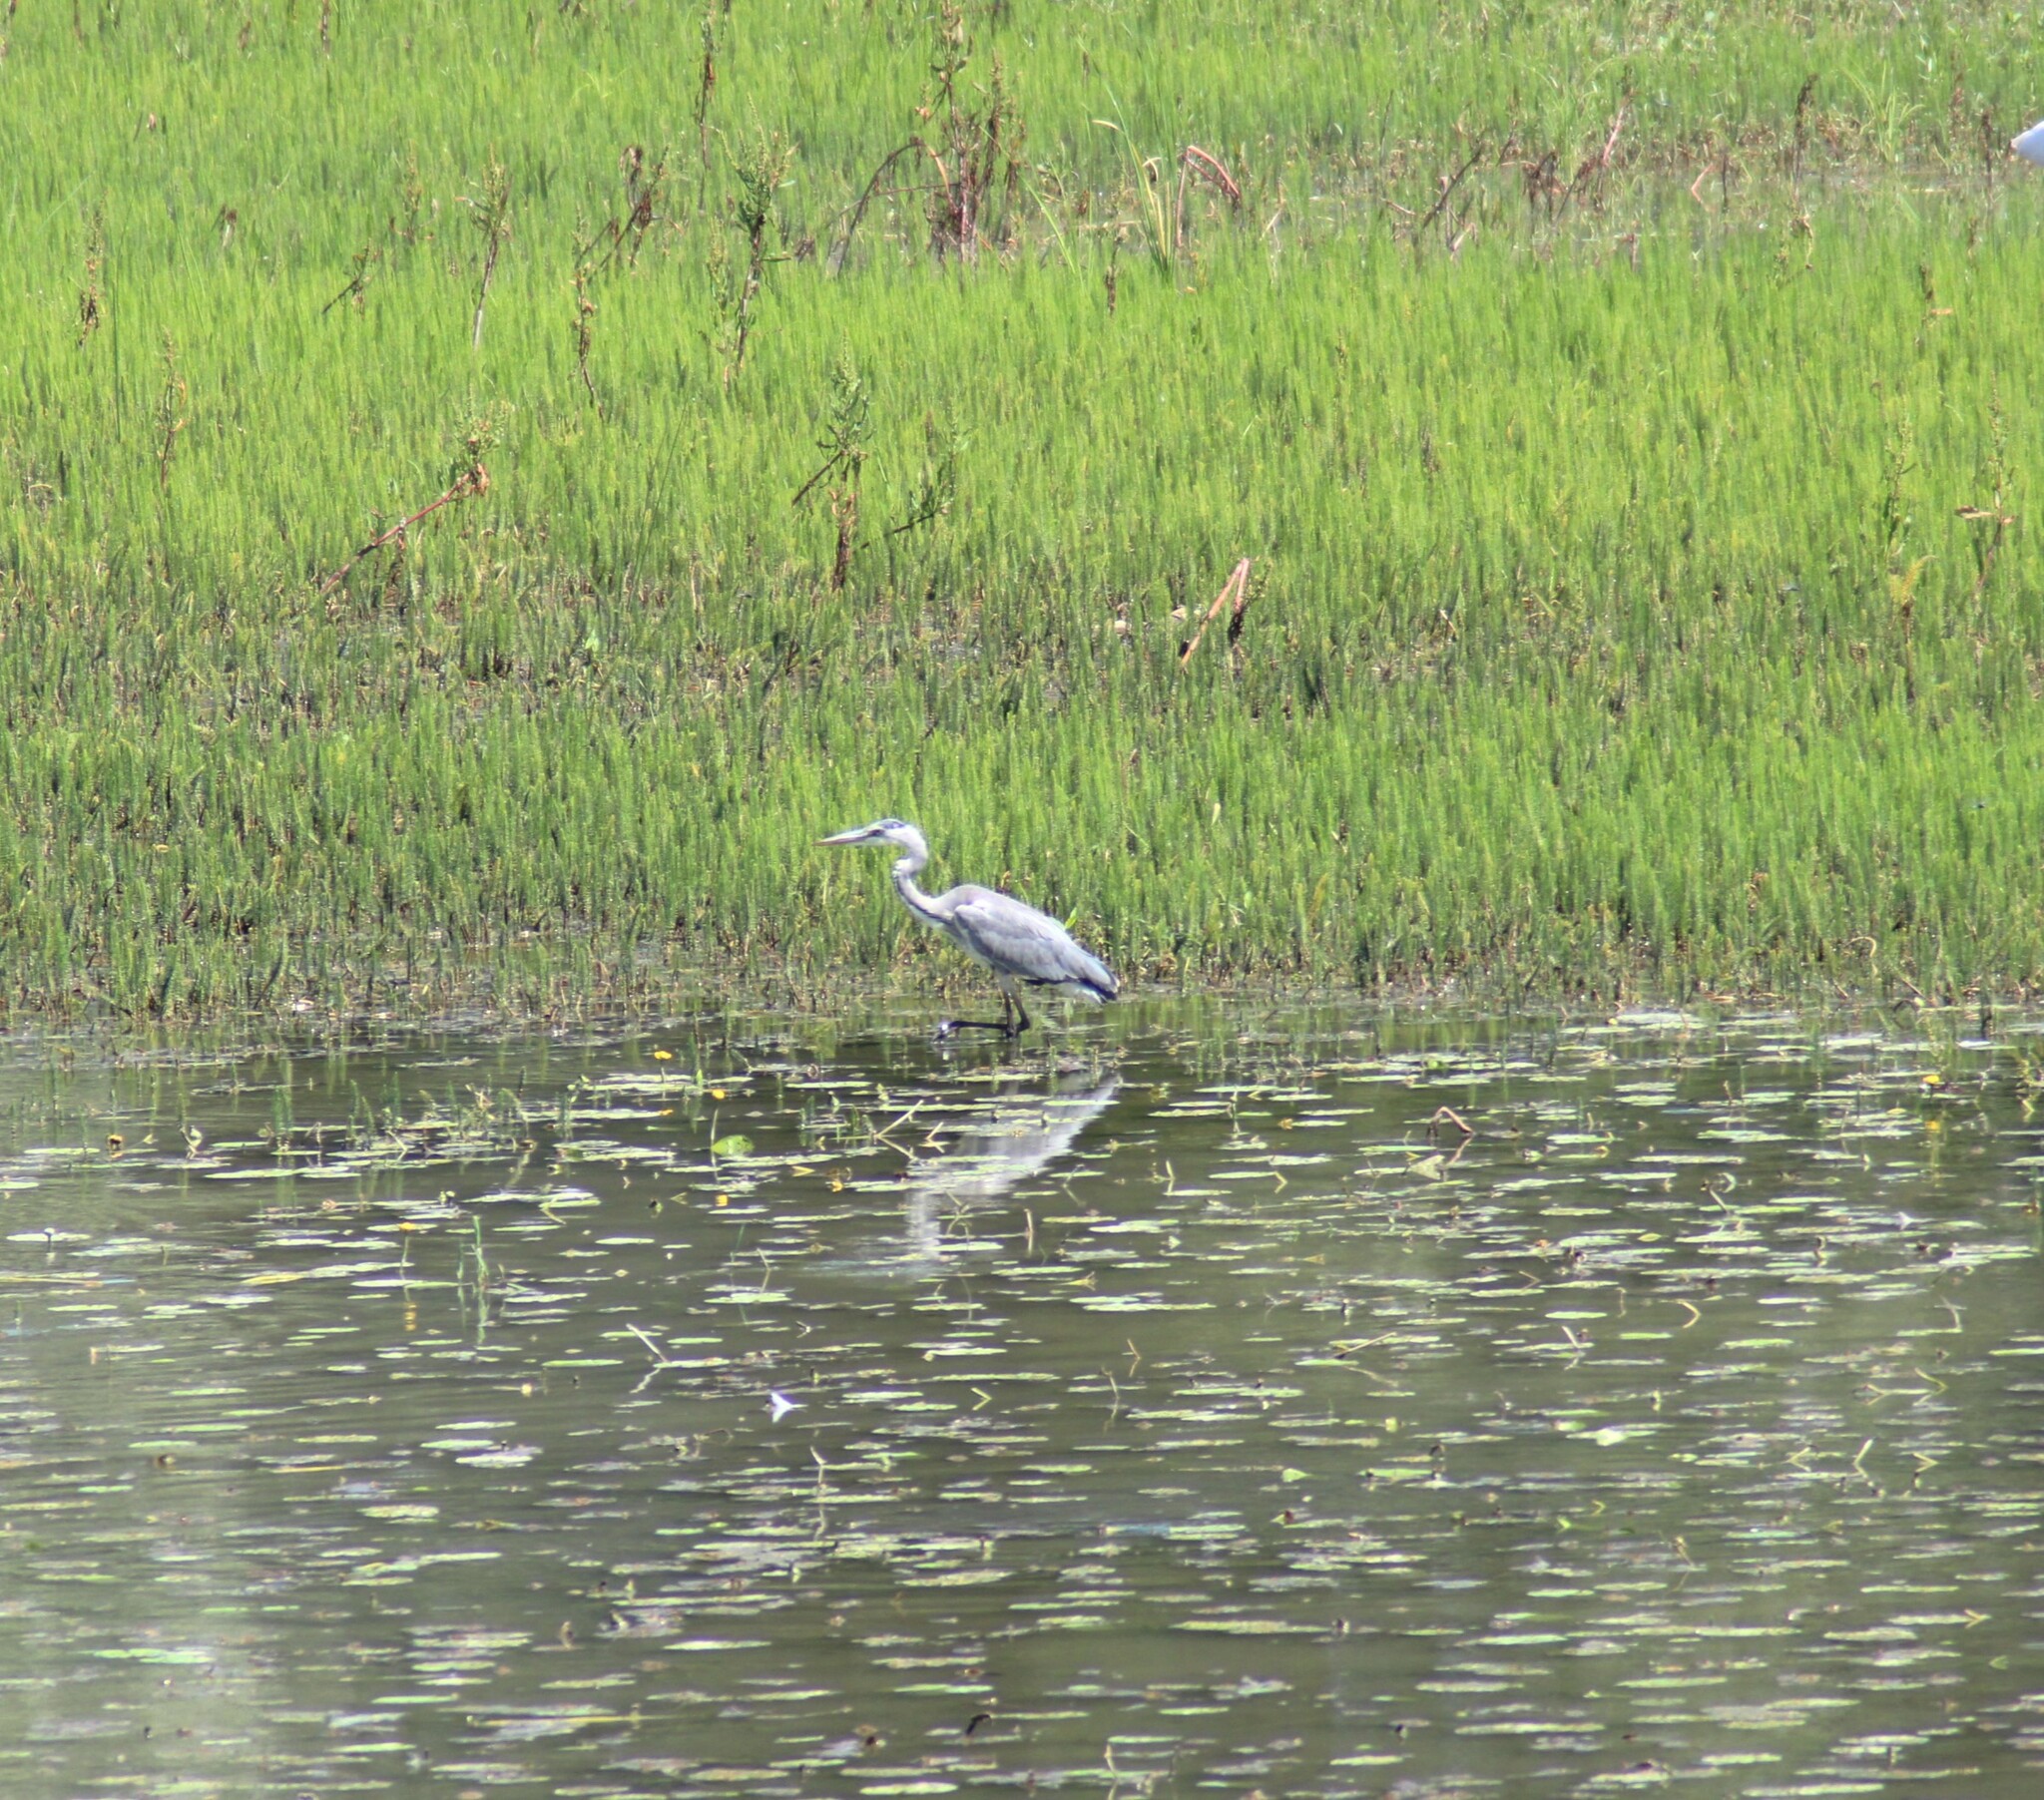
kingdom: Animalia
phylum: Chordata
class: Aves
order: Pelecaniformes
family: Ardeidae
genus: Ardea
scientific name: Ardea cinerea
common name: Grey heron
